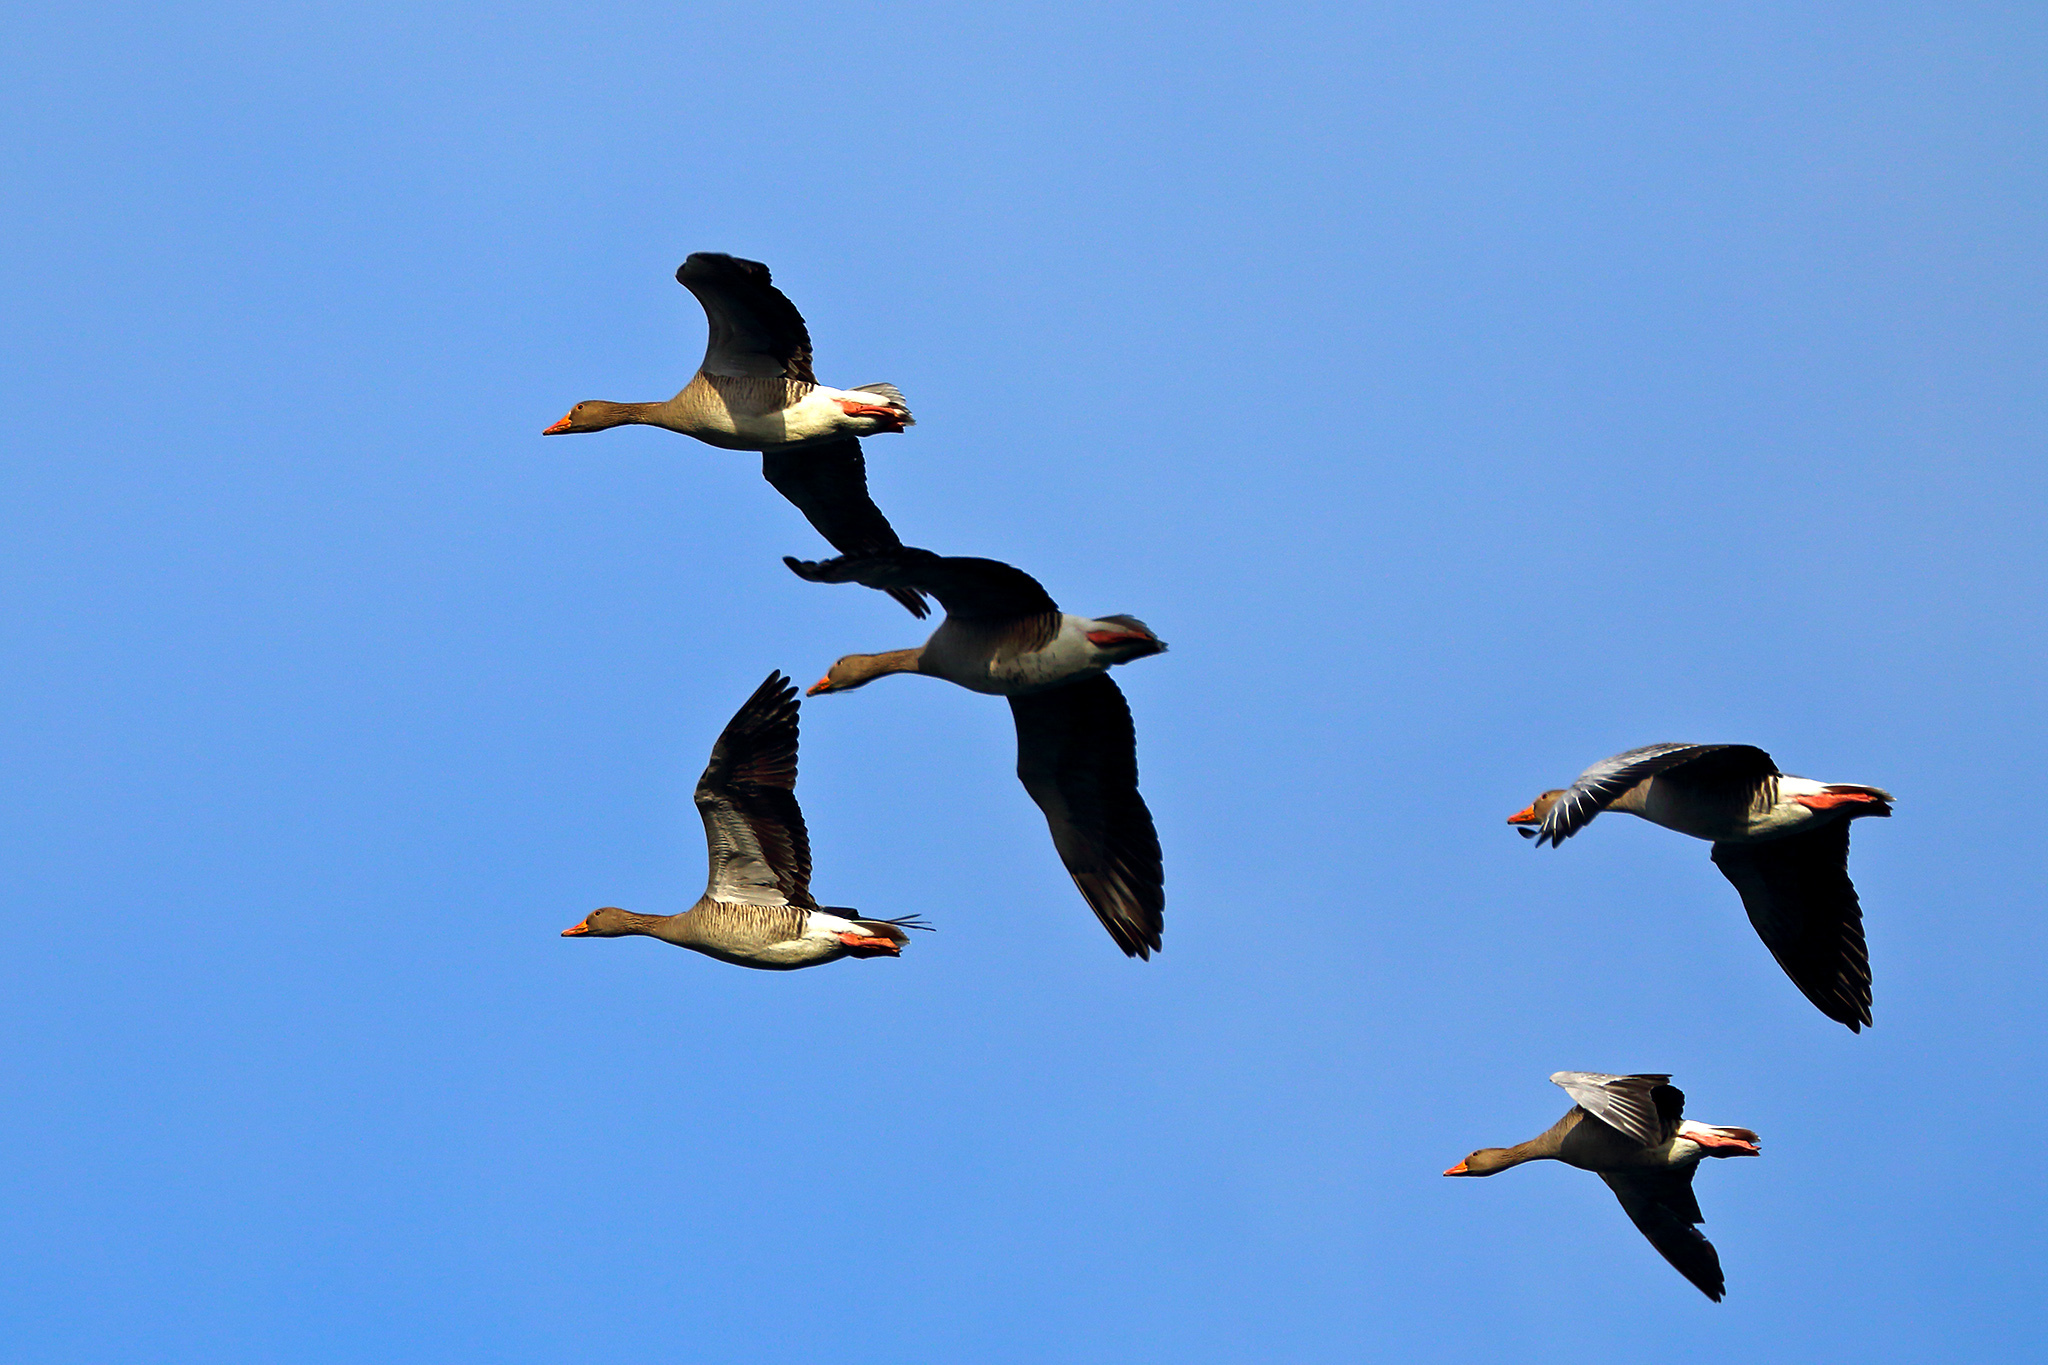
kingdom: Animalia
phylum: Chordata
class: Aves
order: Anseriformes
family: Anatidae
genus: Anser
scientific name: Anser anser
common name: Greylag goose
